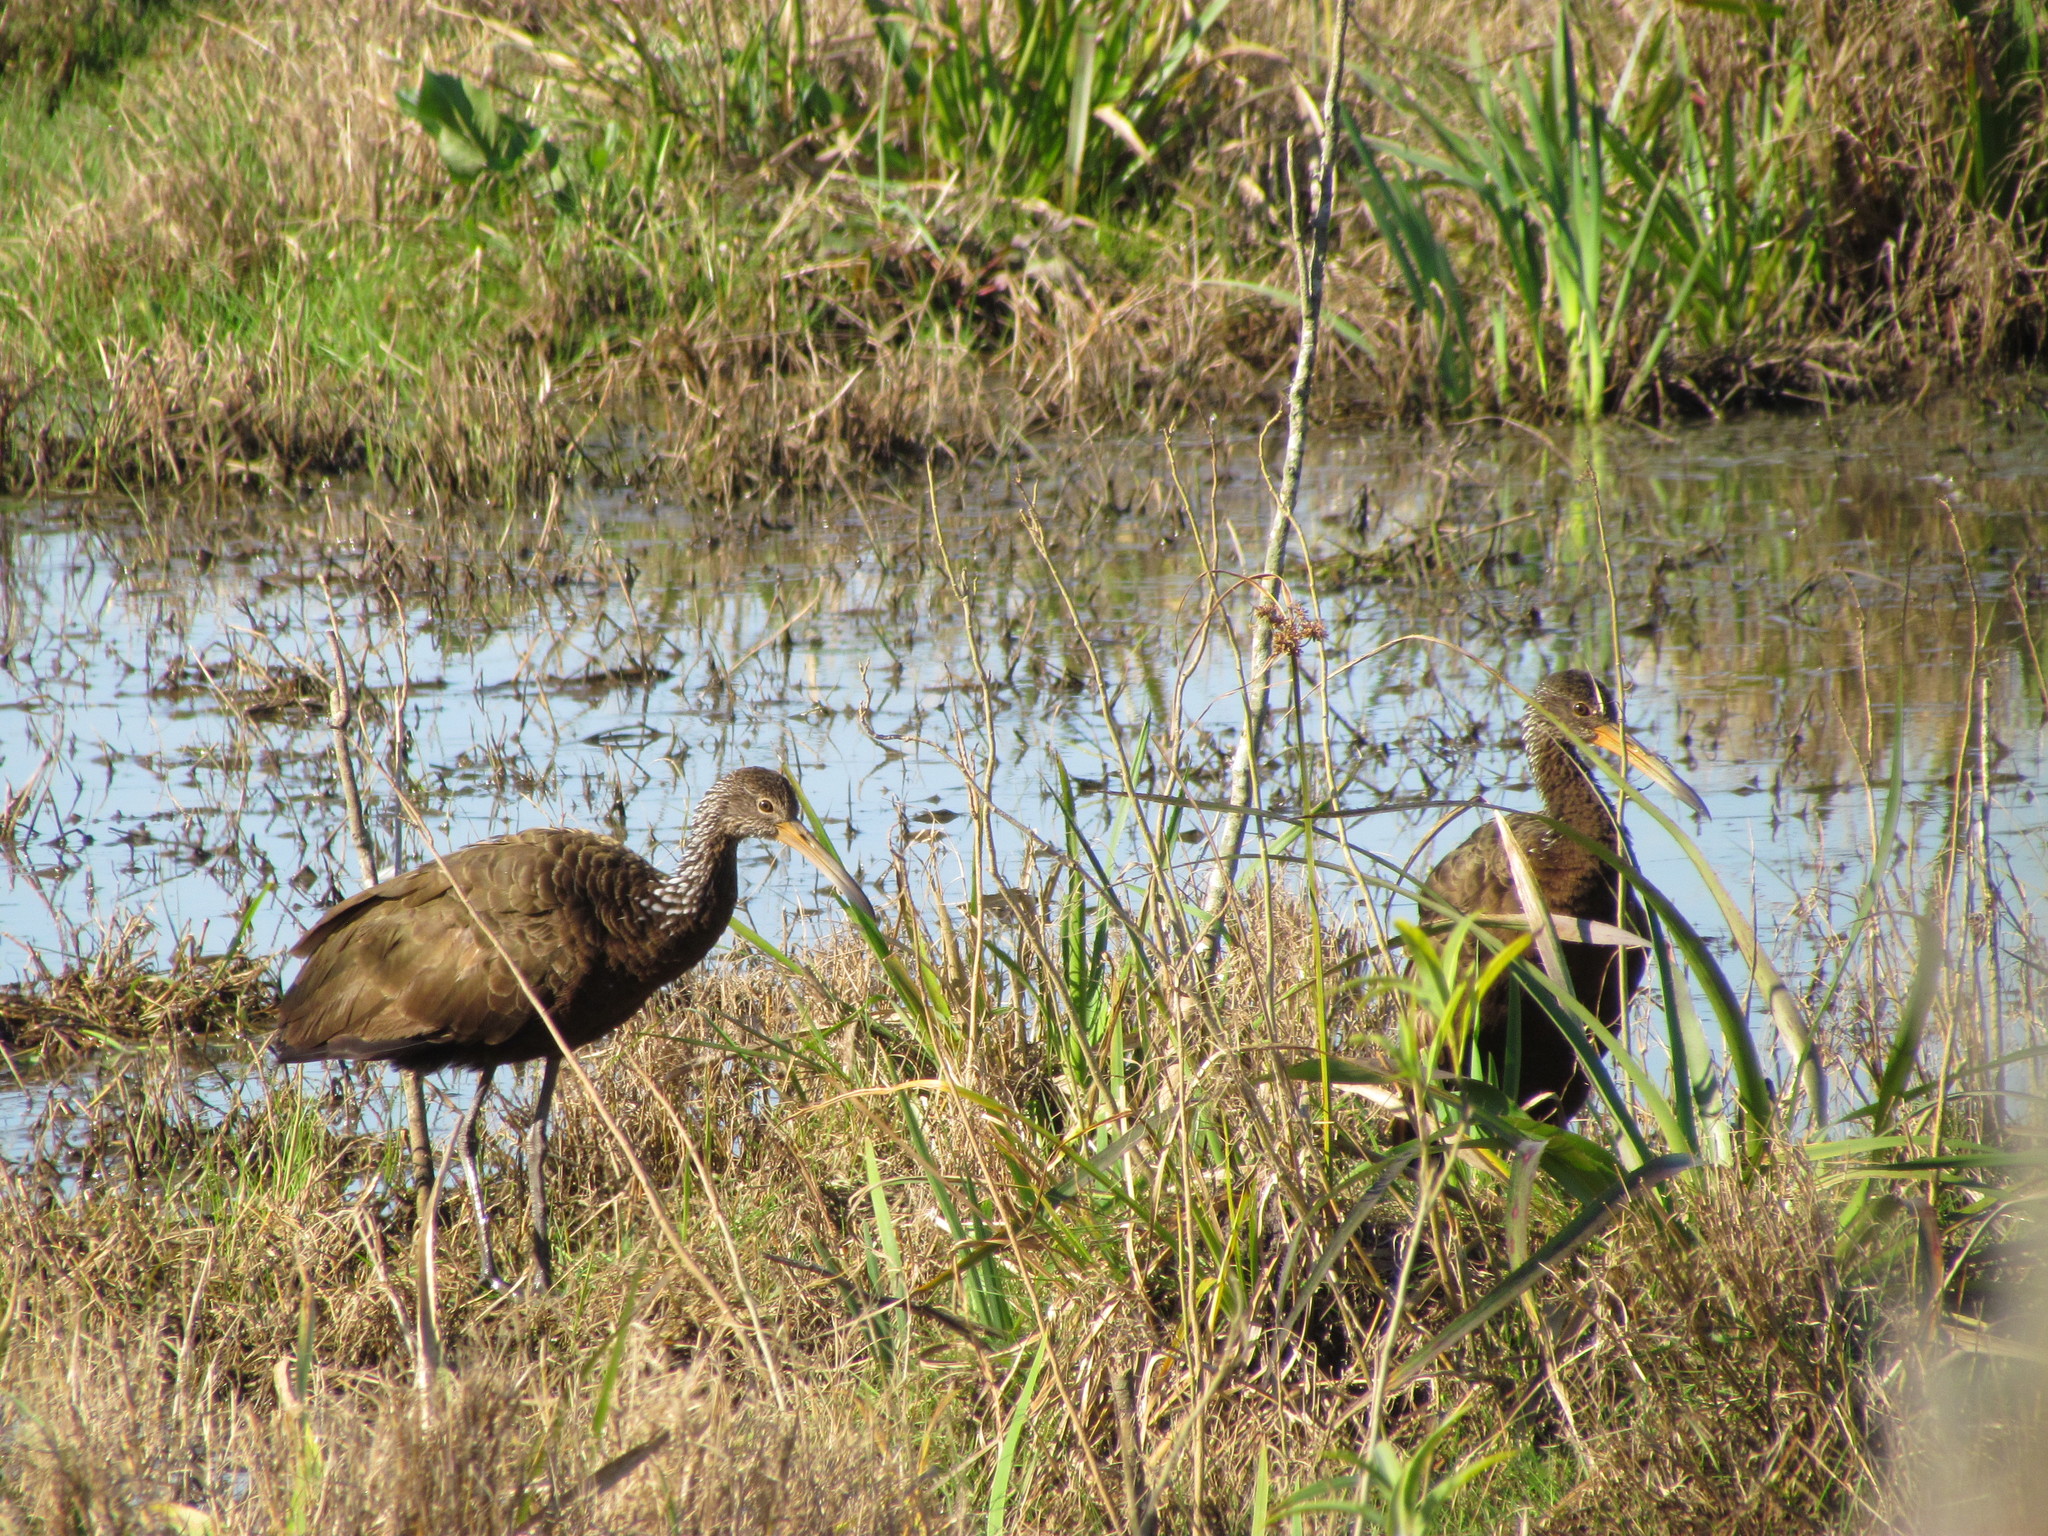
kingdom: Animalia
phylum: Chordata
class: Aves
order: Gruiformes
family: Aramidae
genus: Aramus
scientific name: Aramus guarauna
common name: Limpkin
